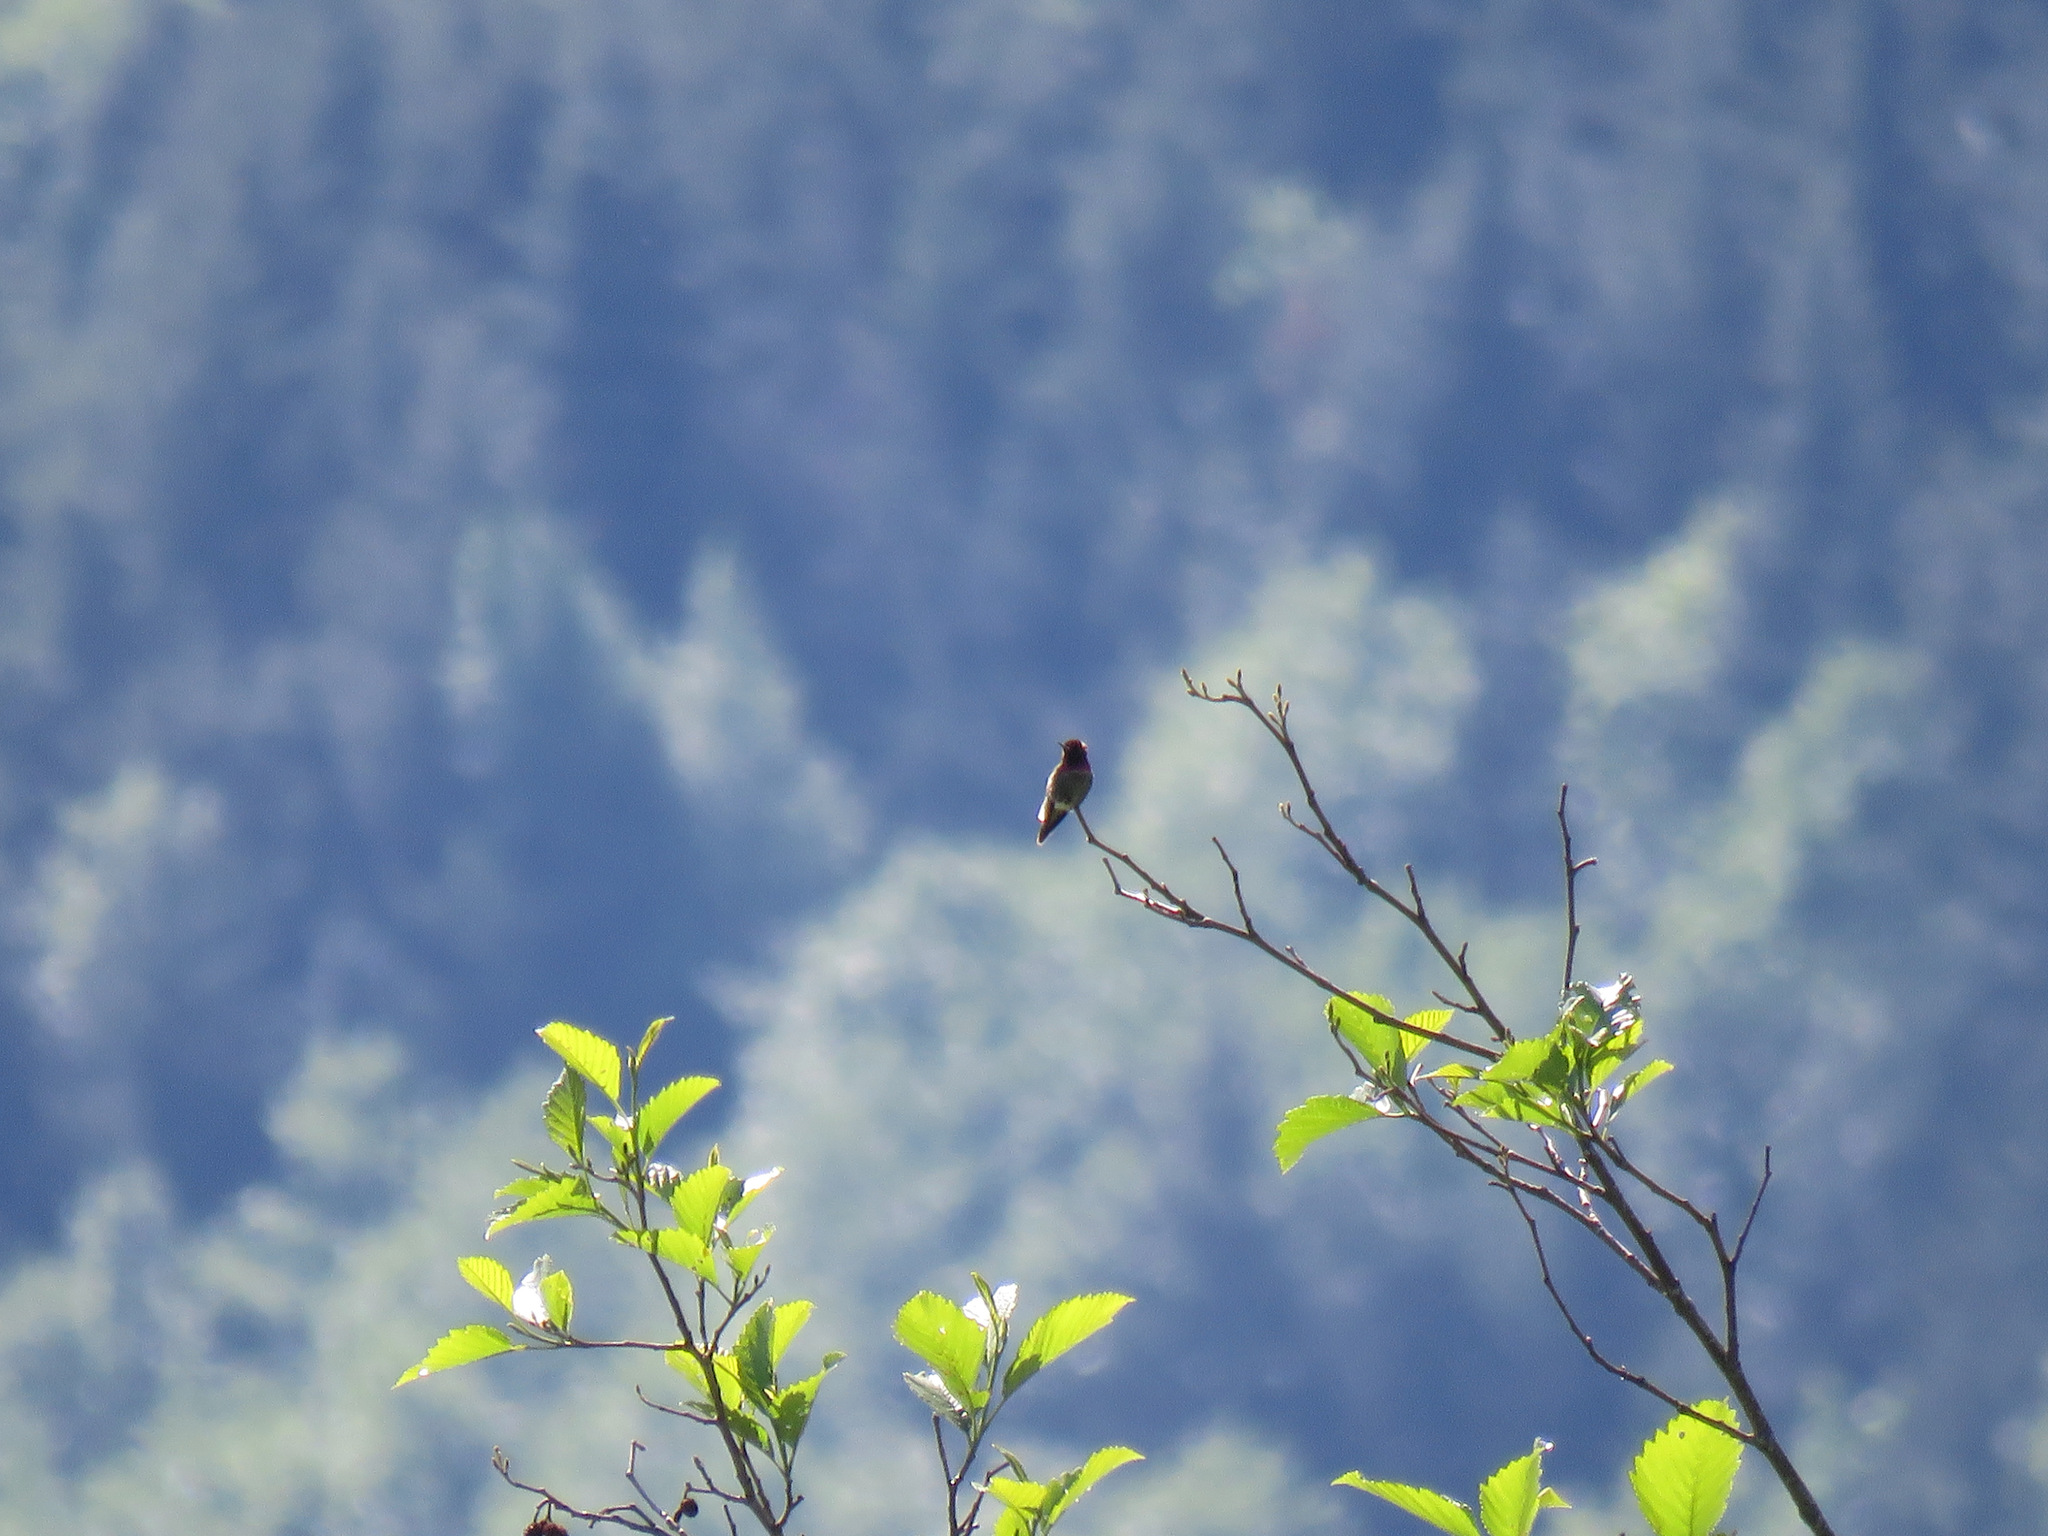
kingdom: Animalia
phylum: Chordata
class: Aves
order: Apodiformes
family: Trochilidae
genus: Calypte
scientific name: Calypte anna
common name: Anna's hummingbird
